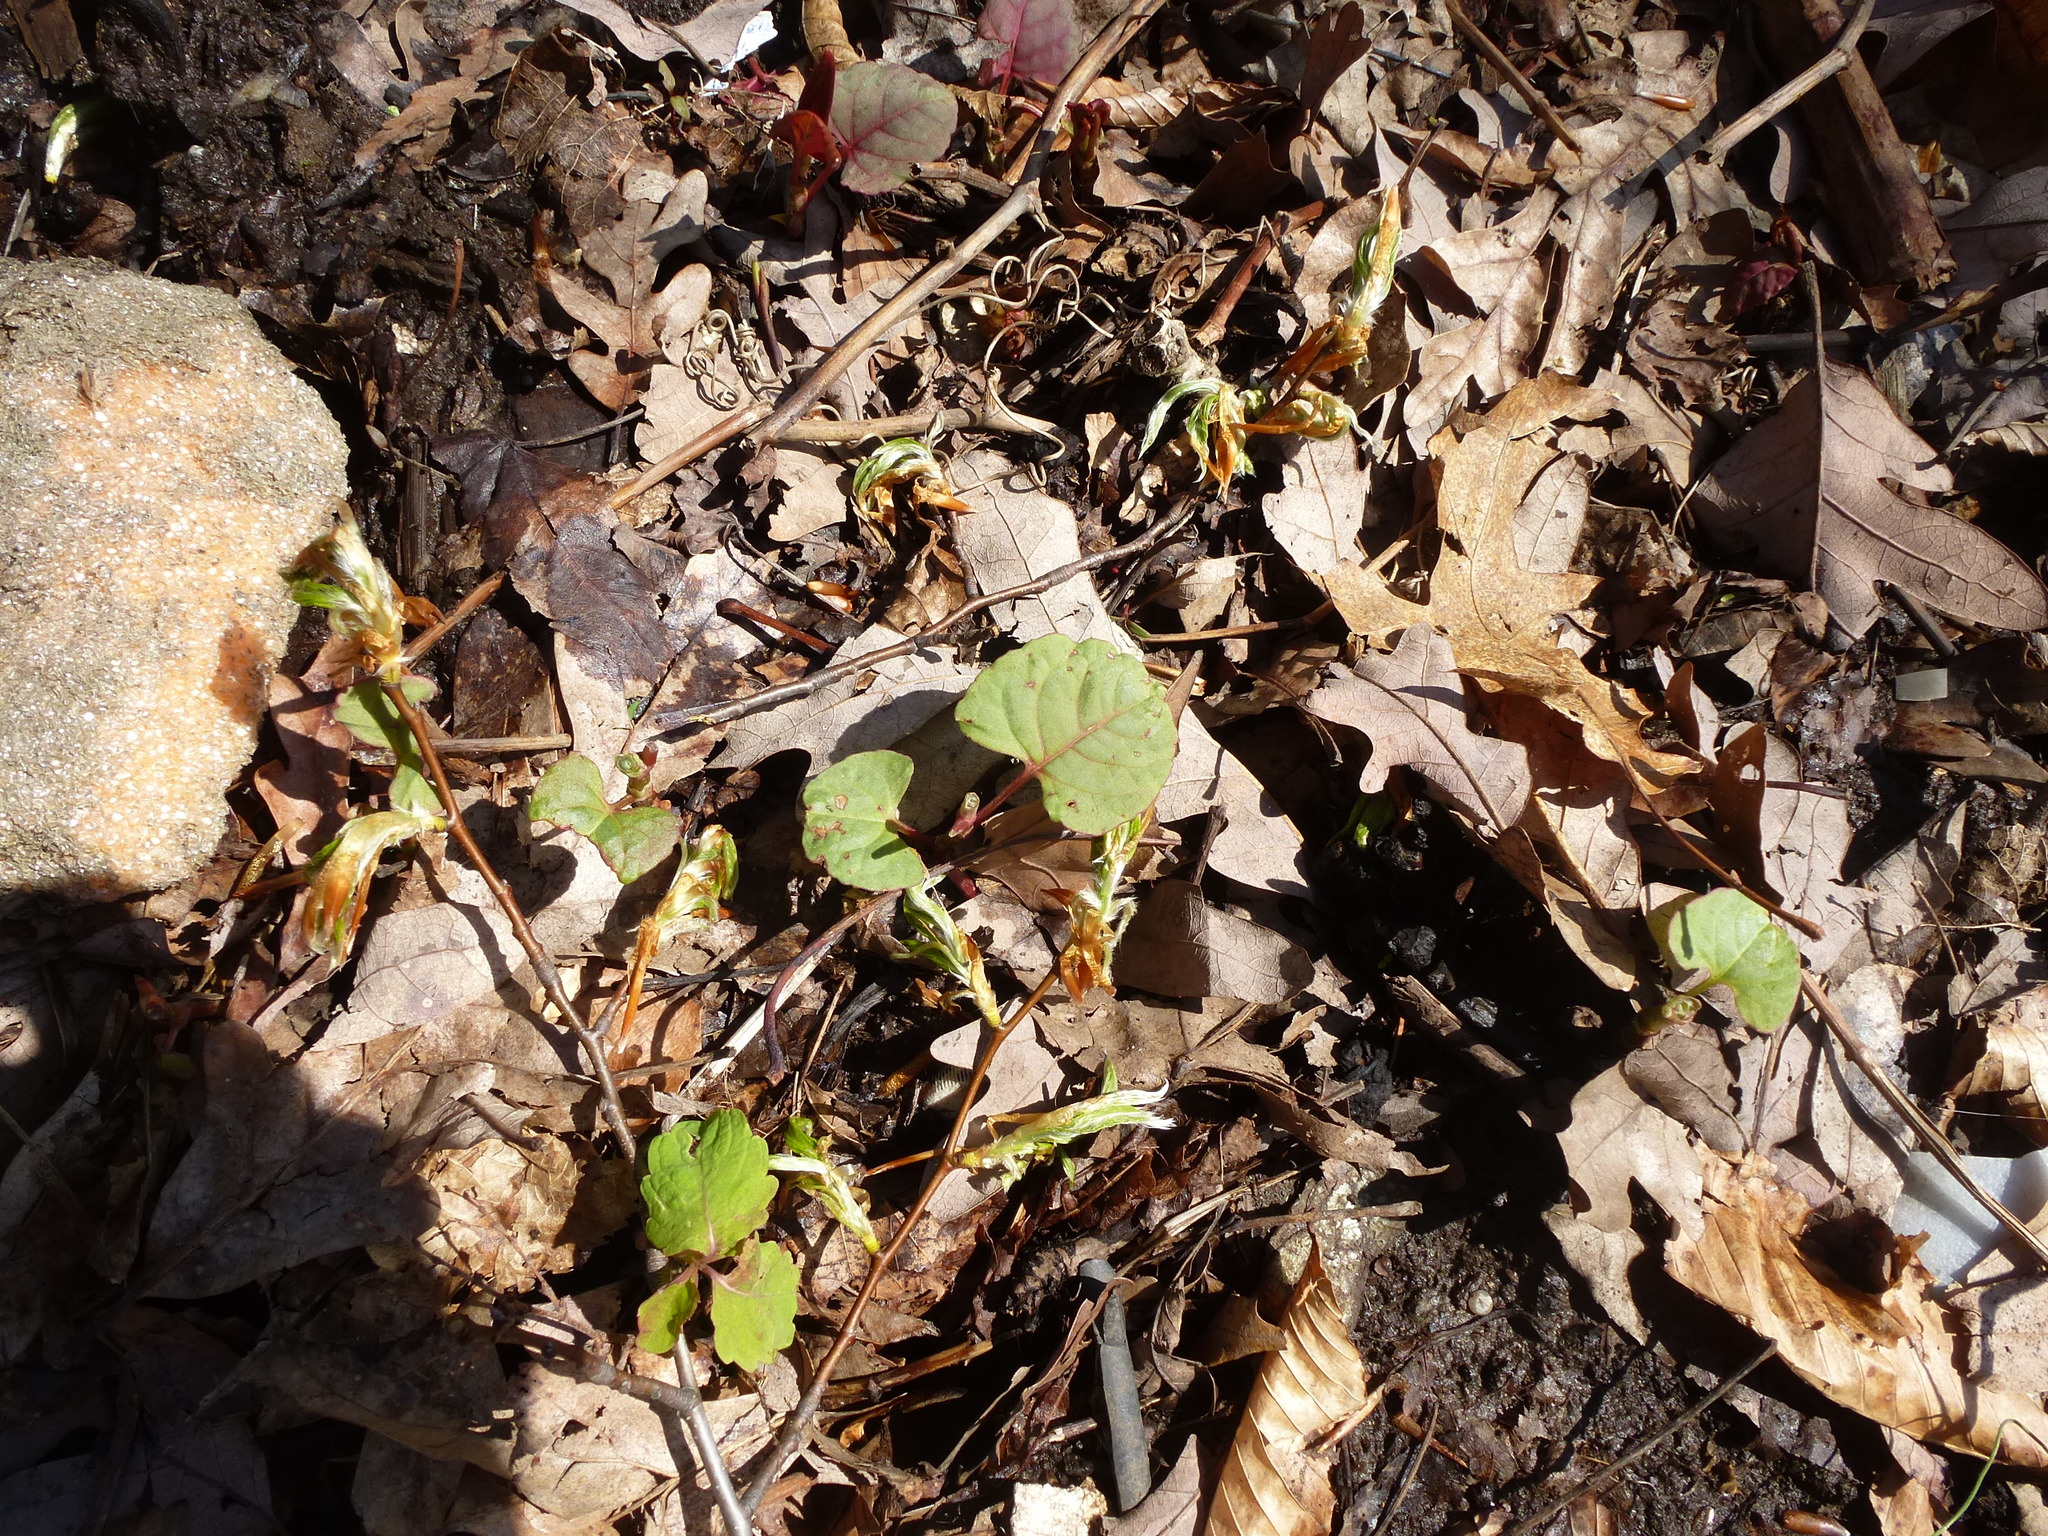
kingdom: Plantae
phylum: Tracheophyta
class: Magnoliopsida
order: Caryophyllales
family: Polygonaceae
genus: Reynoutria
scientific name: Reynoutria japonica
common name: Japanese knotweed
